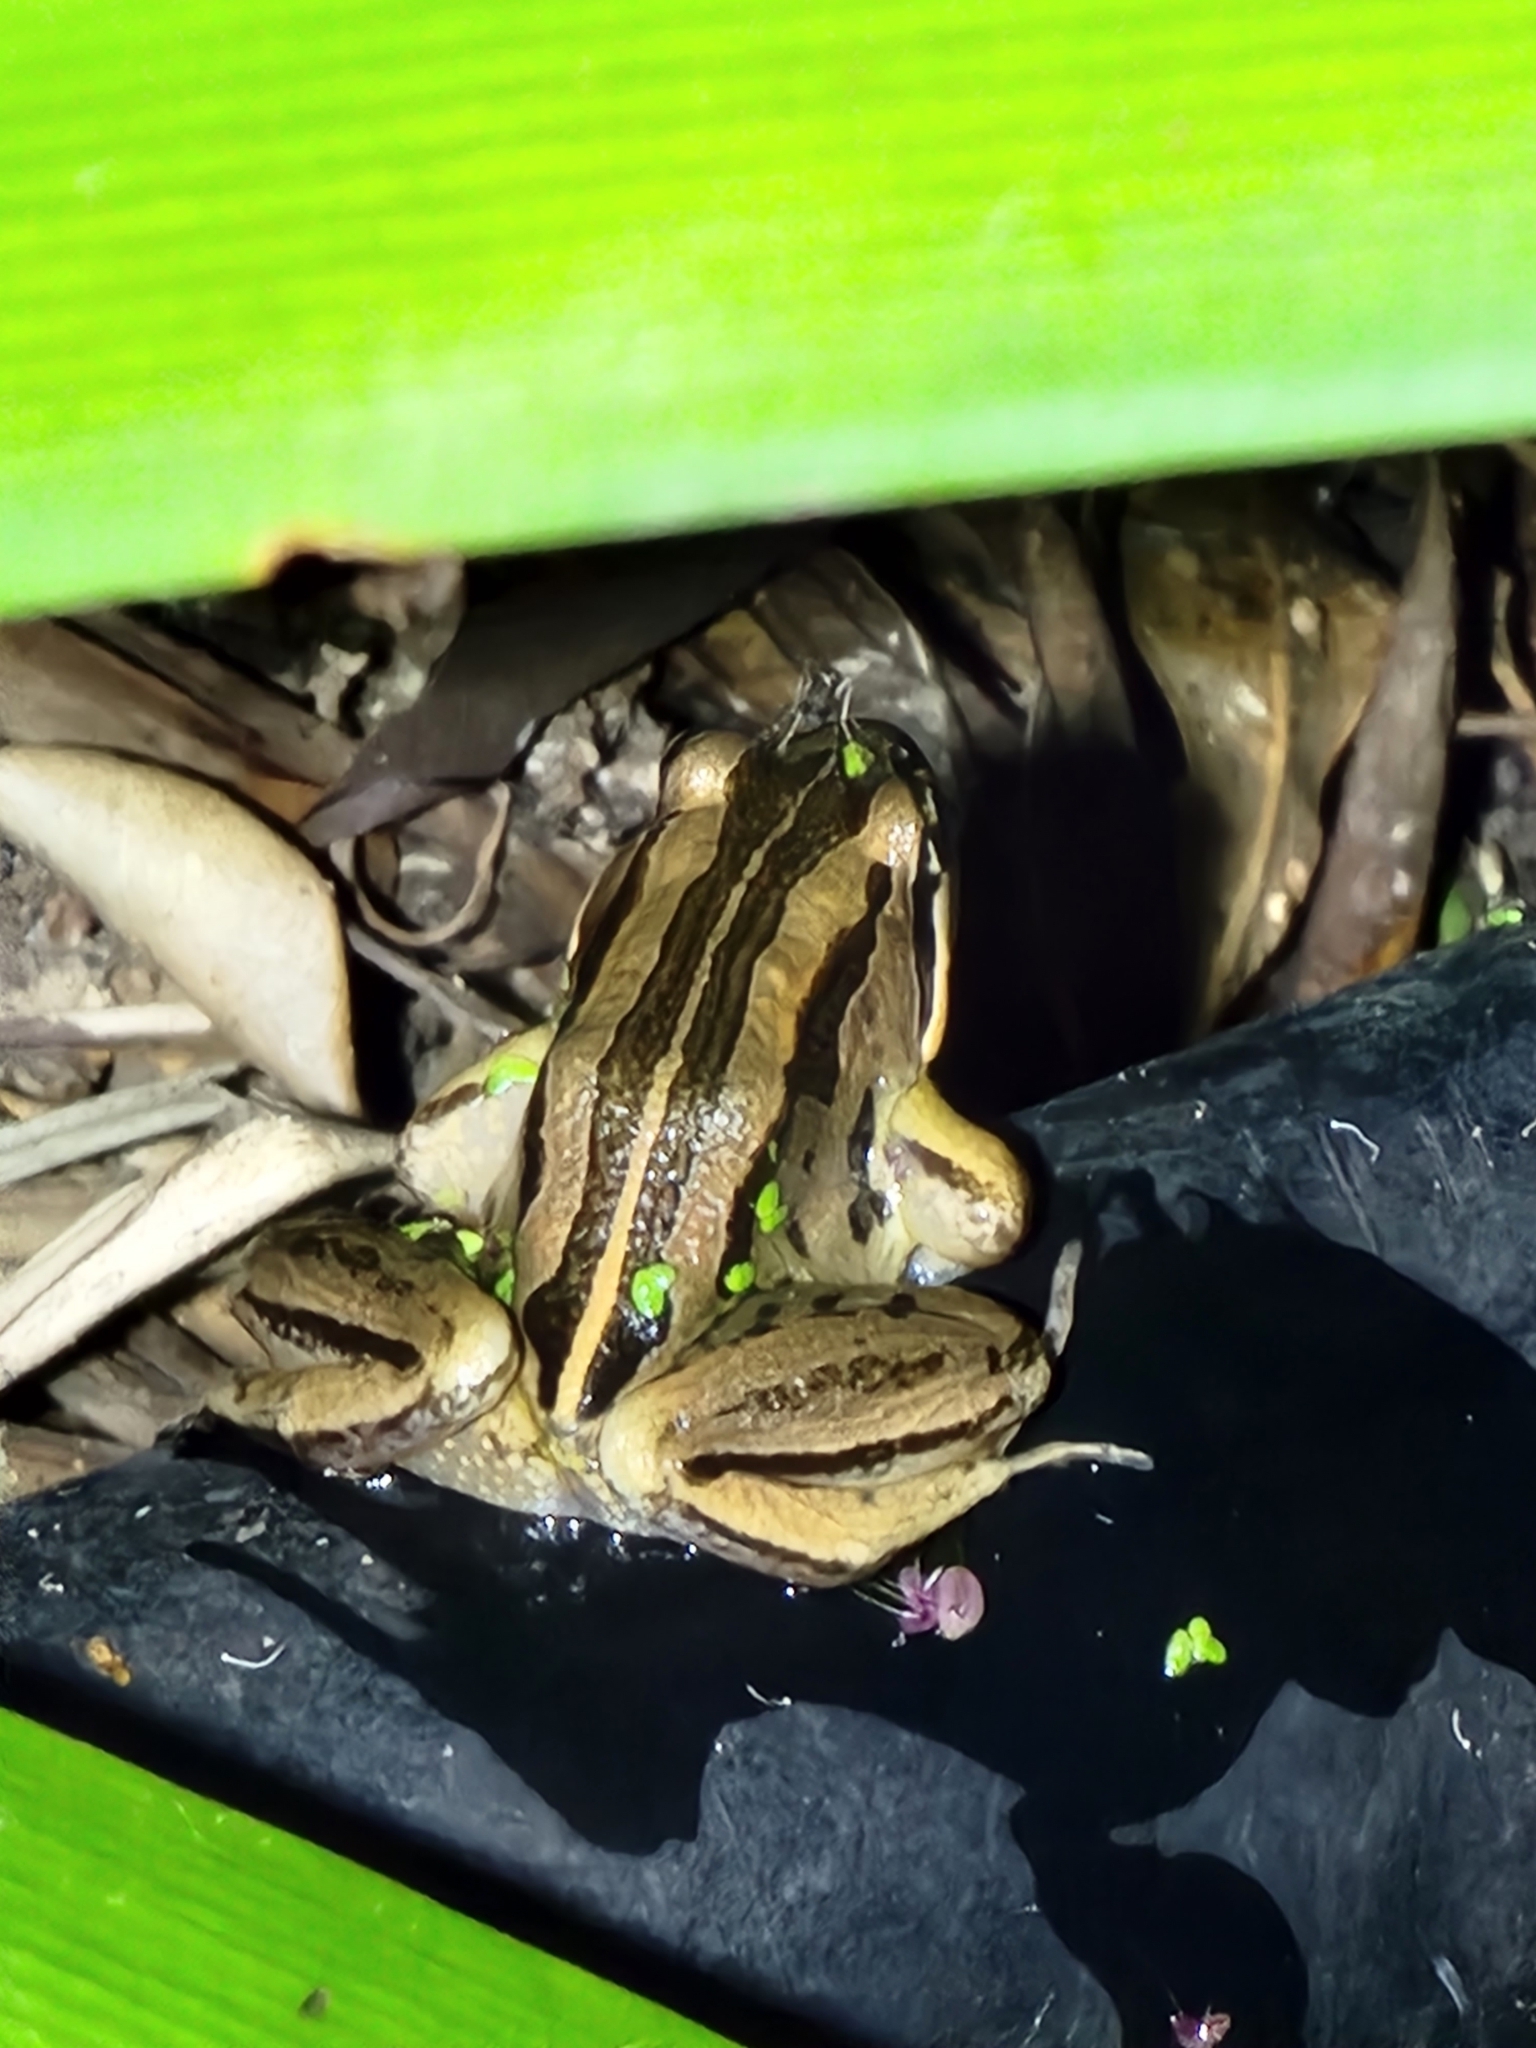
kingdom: Animalia
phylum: Chordata
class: Amphibia
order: Anura
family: Limnodynastidae
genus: Limnodynastes
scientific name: Limnodynastes peronii
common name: Brown frog
